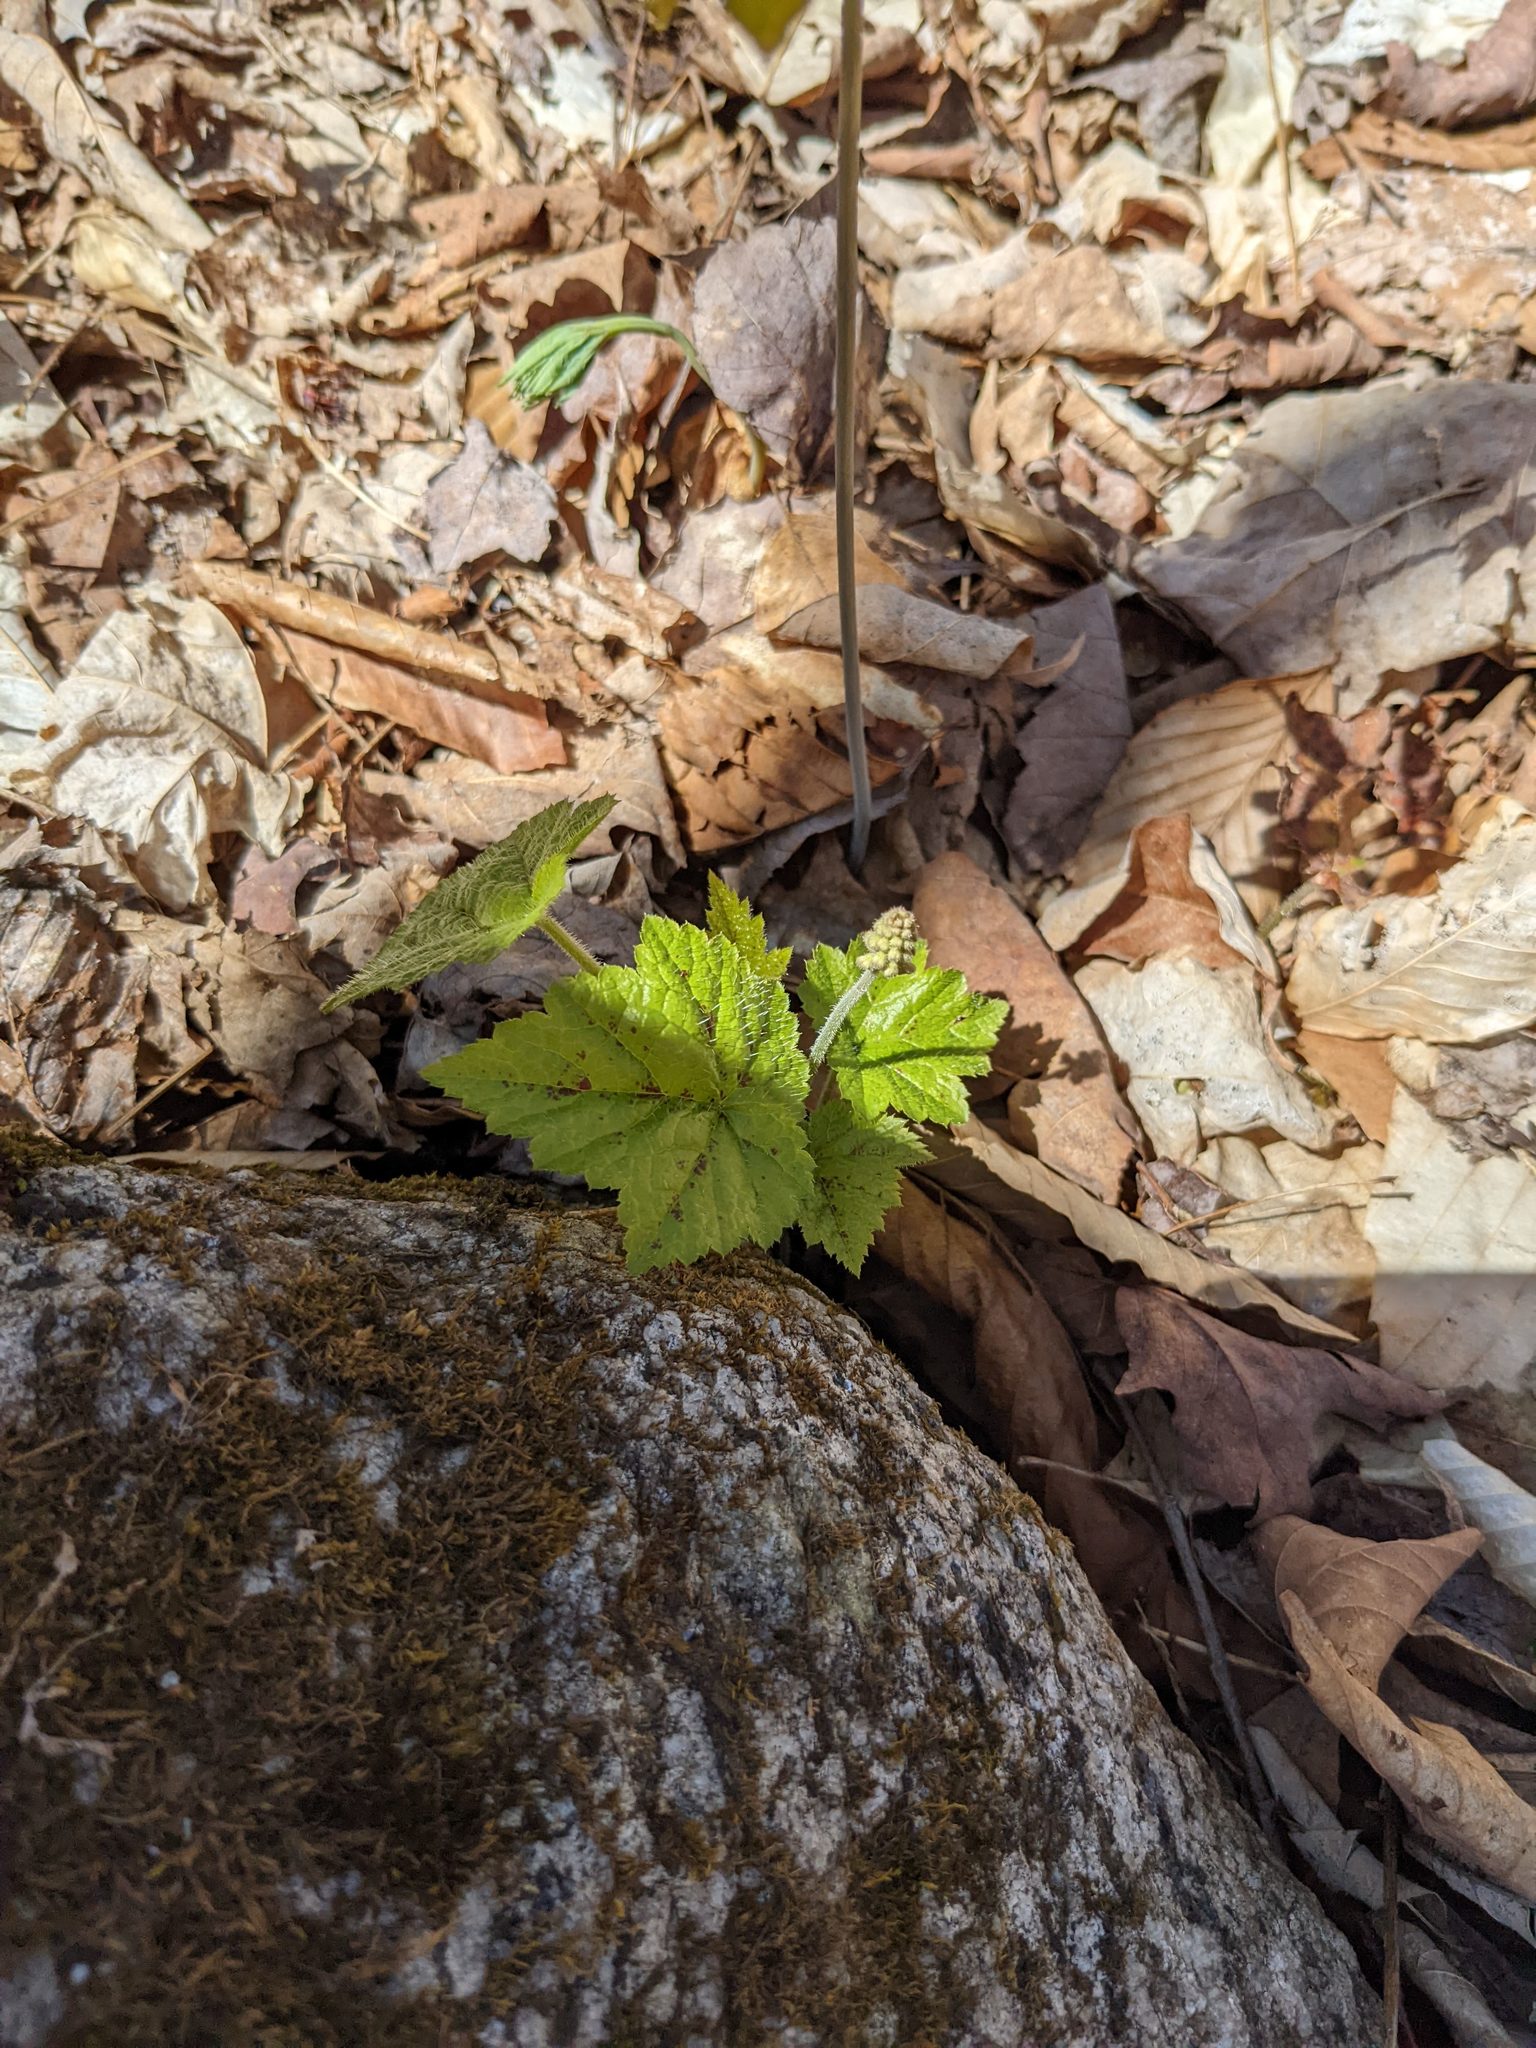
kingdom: Plantae
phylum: Tracheophyta
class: Magnoliopsida
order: Saxifragales
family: Saxifragaceae
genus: Tiarella
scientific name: Tiarella stolonifera
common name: Stoloniferous foamflower
